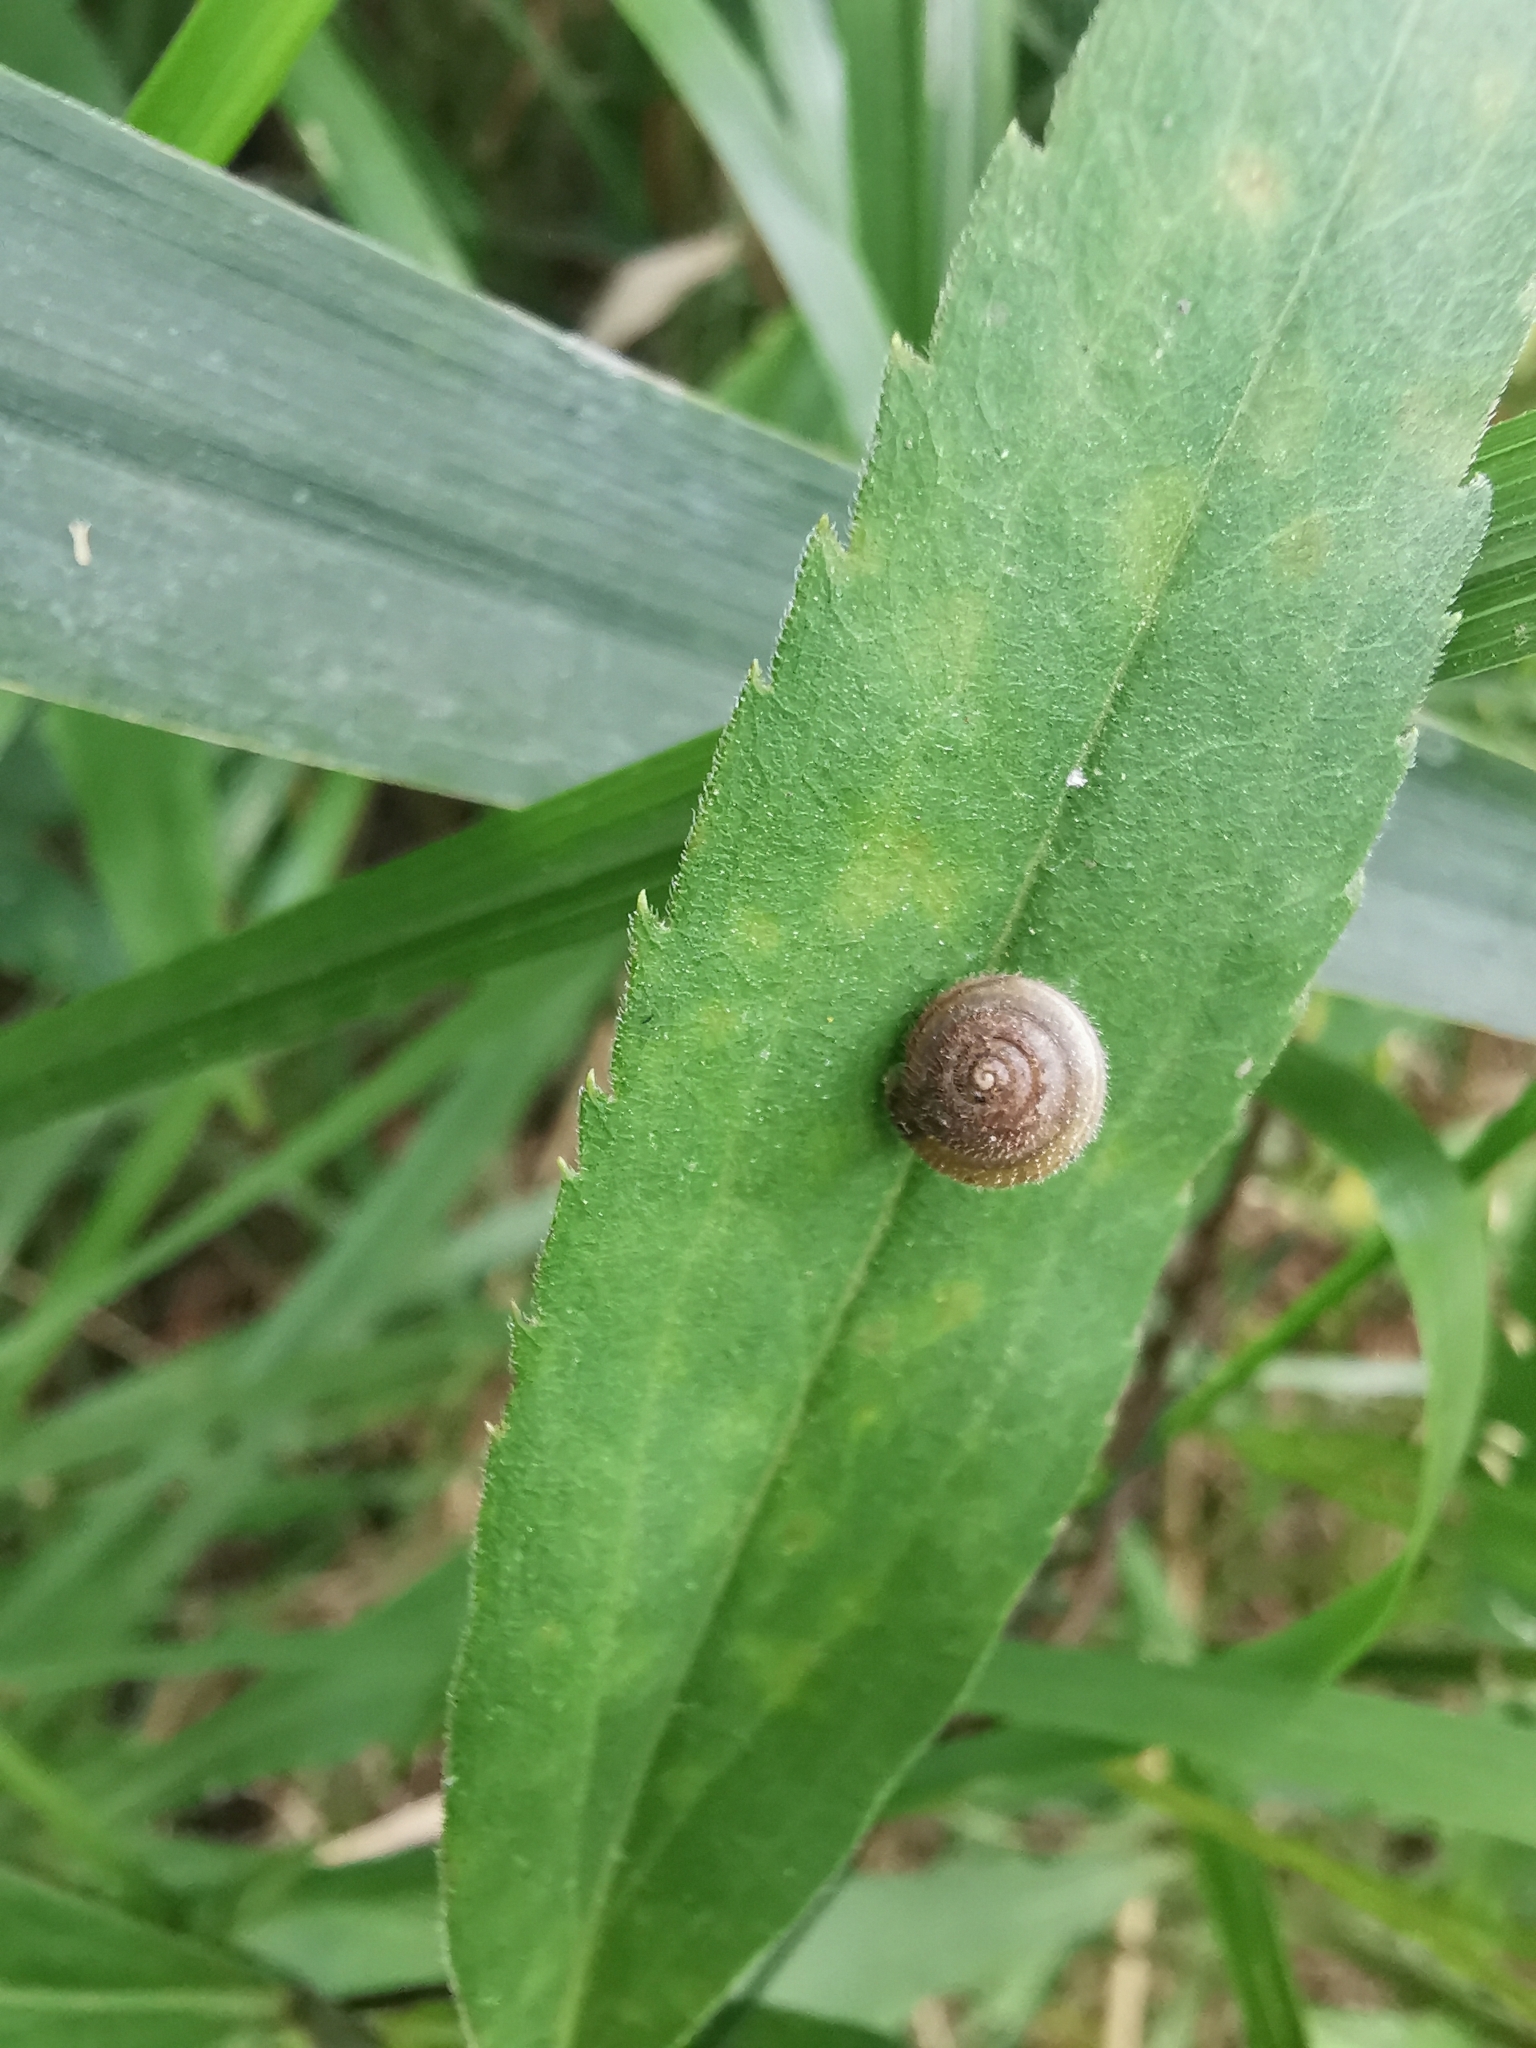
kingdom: Animalia
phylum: Mollusca
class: Gastropoda
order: Stylommatophora
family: Hygromiidae
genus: Trochulus
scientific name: Trochulus hispidus
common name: Hairy snail
